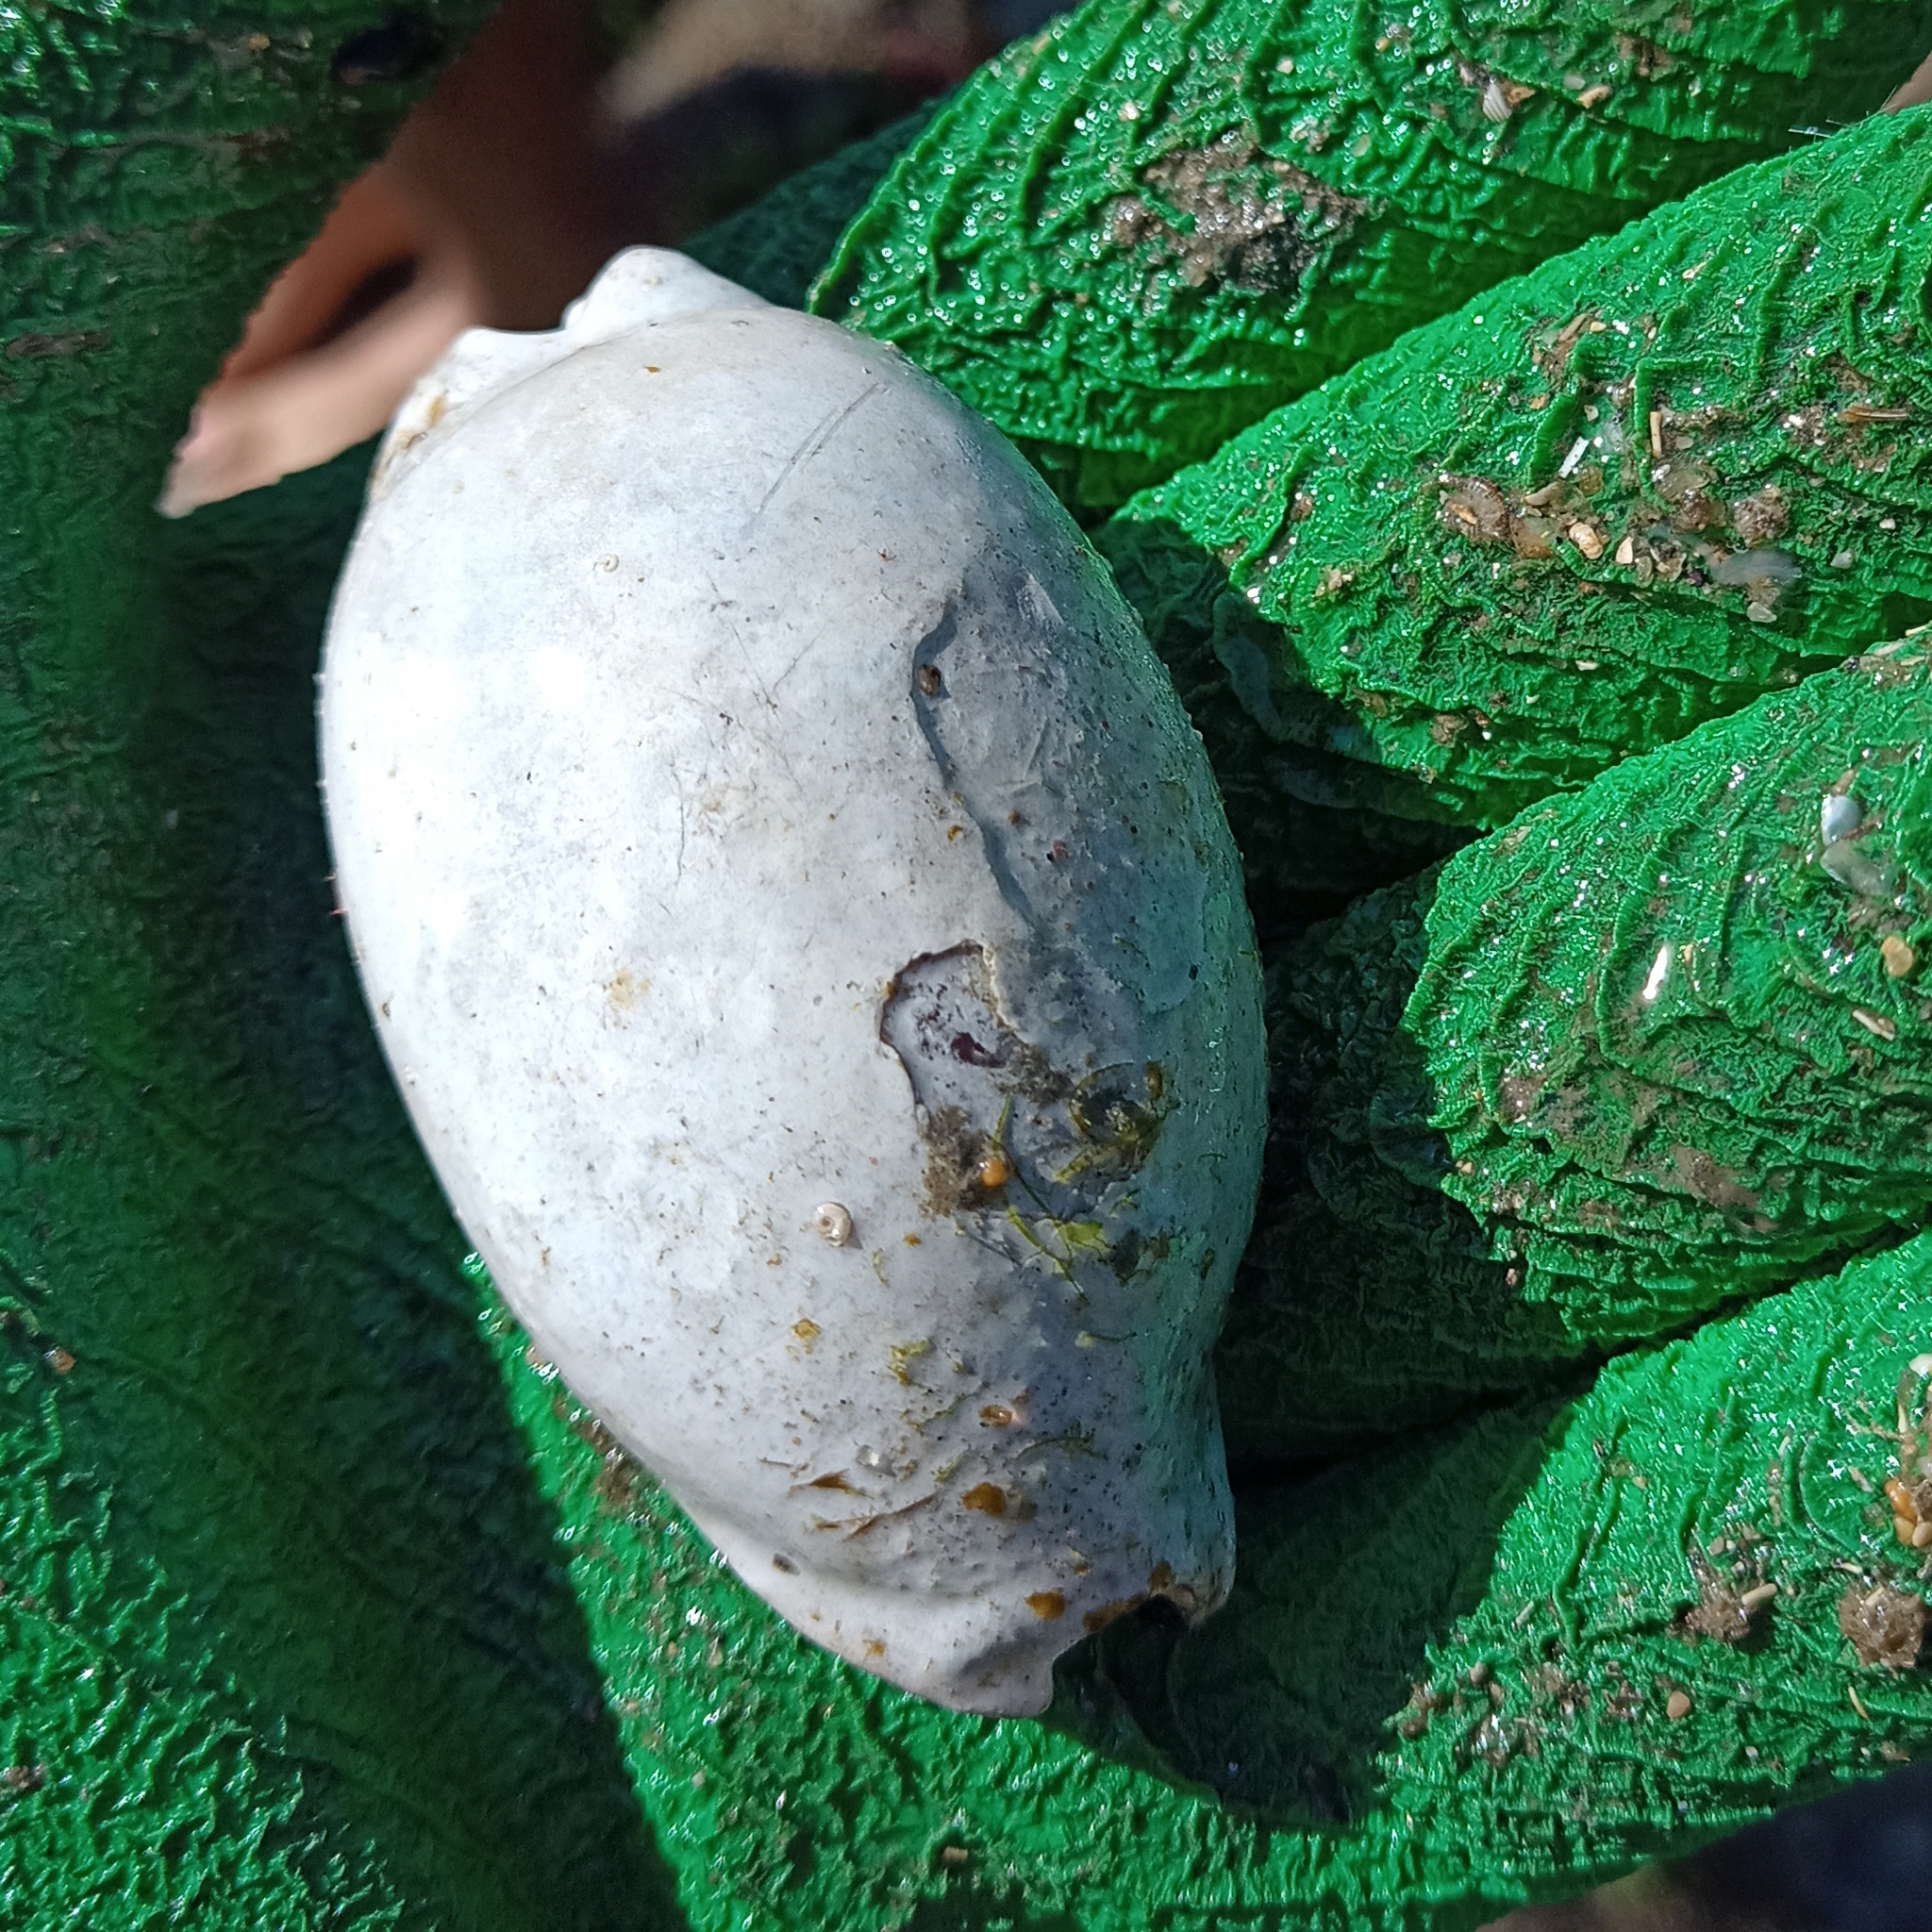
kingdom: Animalia
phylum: Mollusca
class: Gastropoda
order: Littorinimorpha
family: Cypraeidae
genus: Macrocypraea
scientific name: Macrocypraea zebra
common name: Measled cowrie
